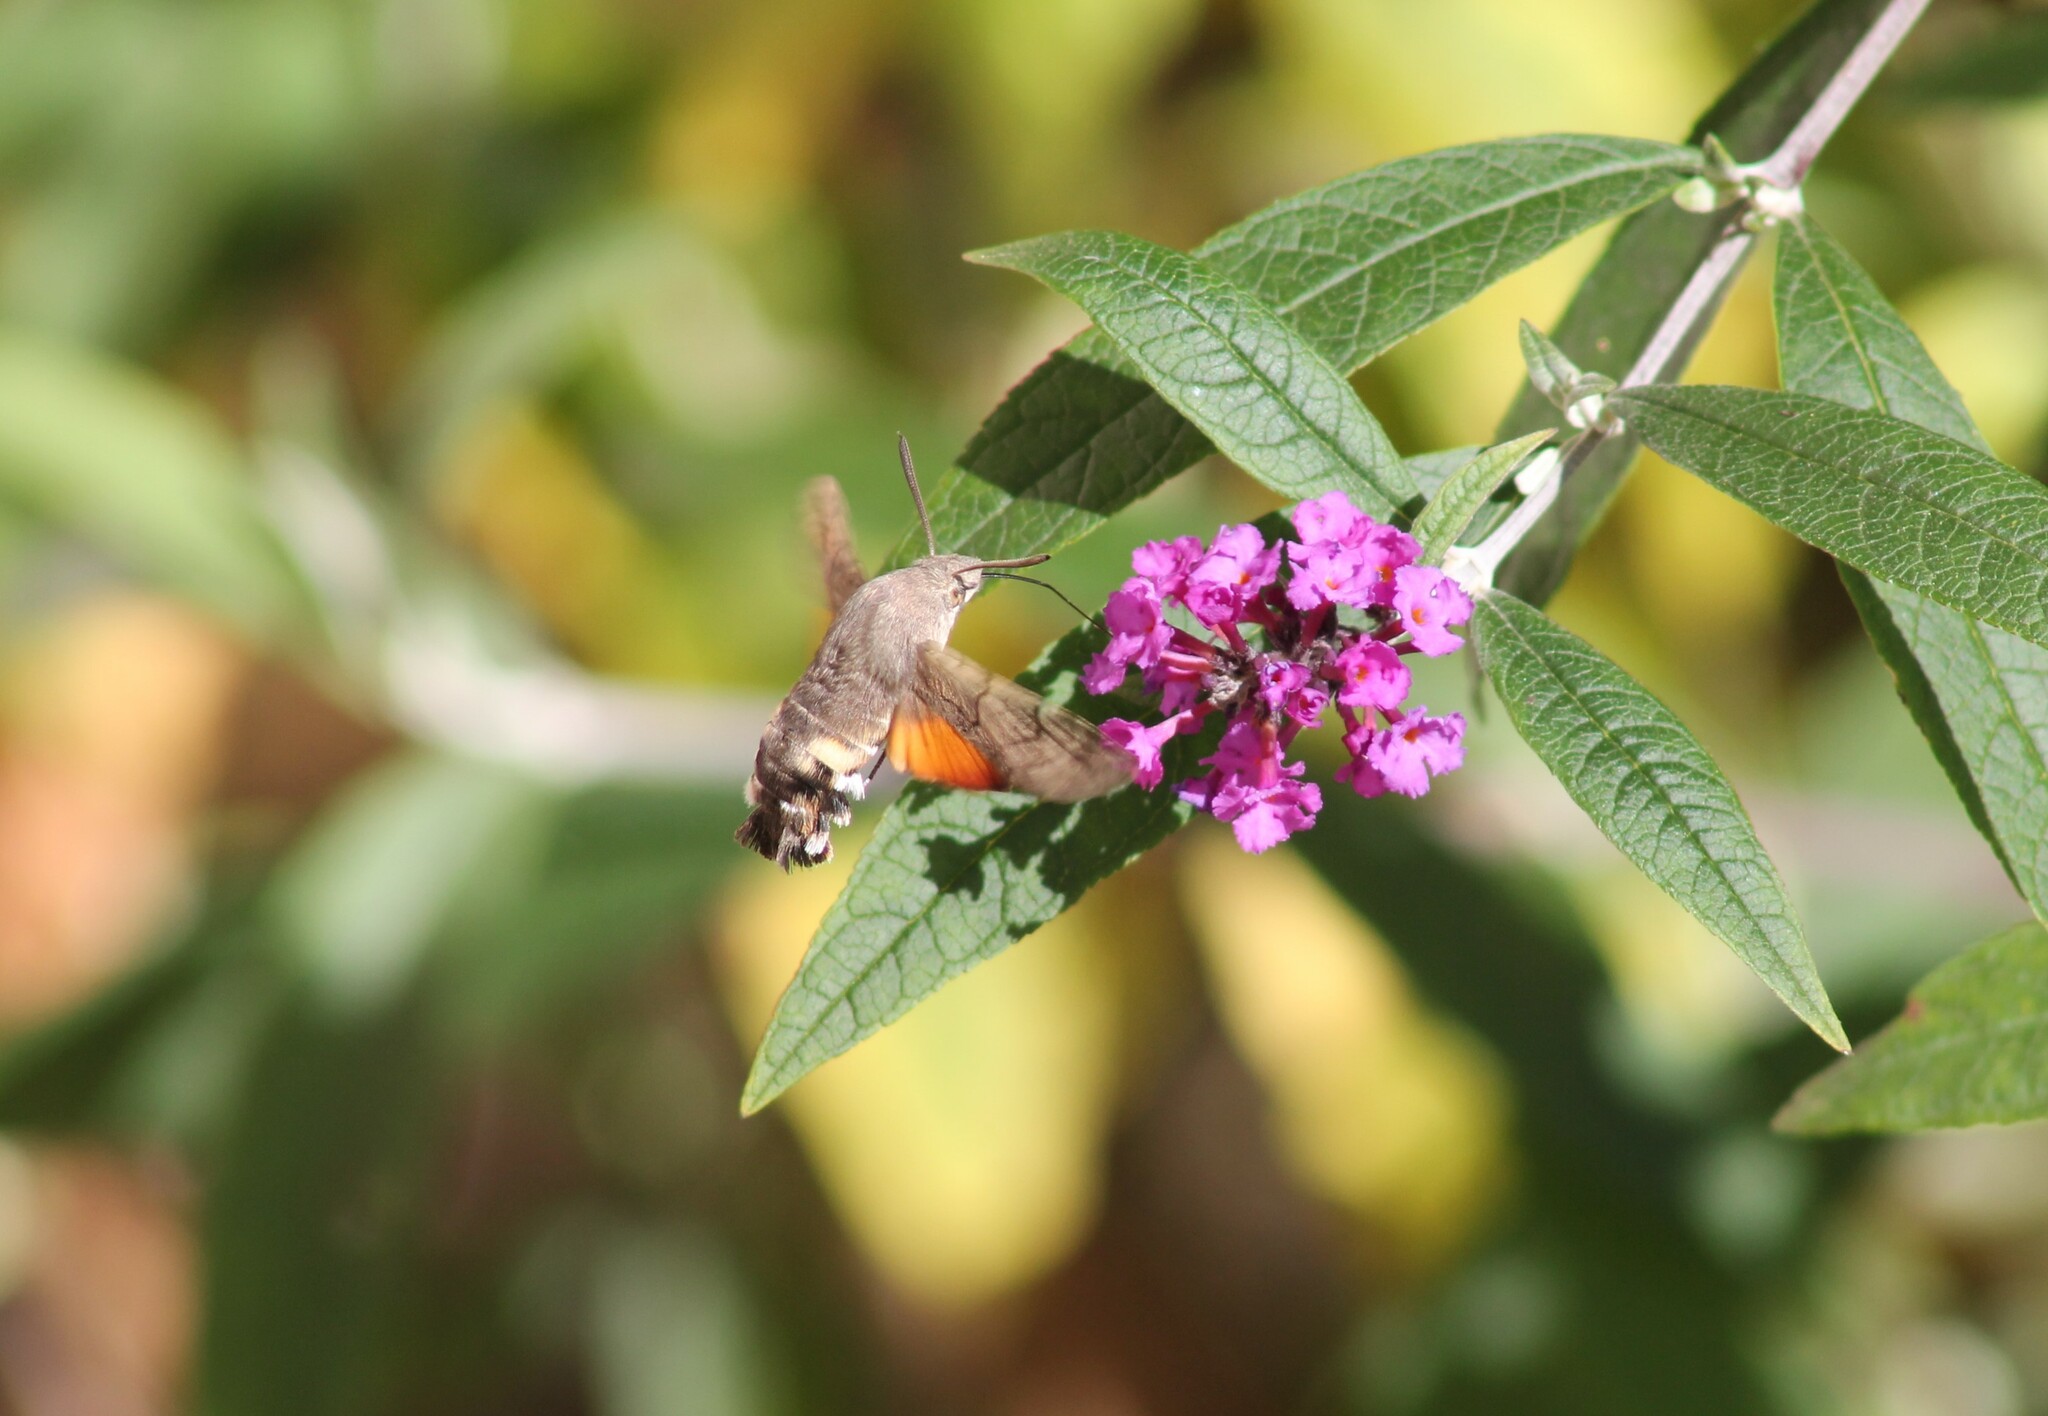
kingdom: Animalia
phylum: Arthropoda
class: Insecta
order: Lepidoptera
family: Sphingidae
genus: Macroglossum
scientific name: Macroglossum stellatarum
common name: Humming-bird hawk-moth
